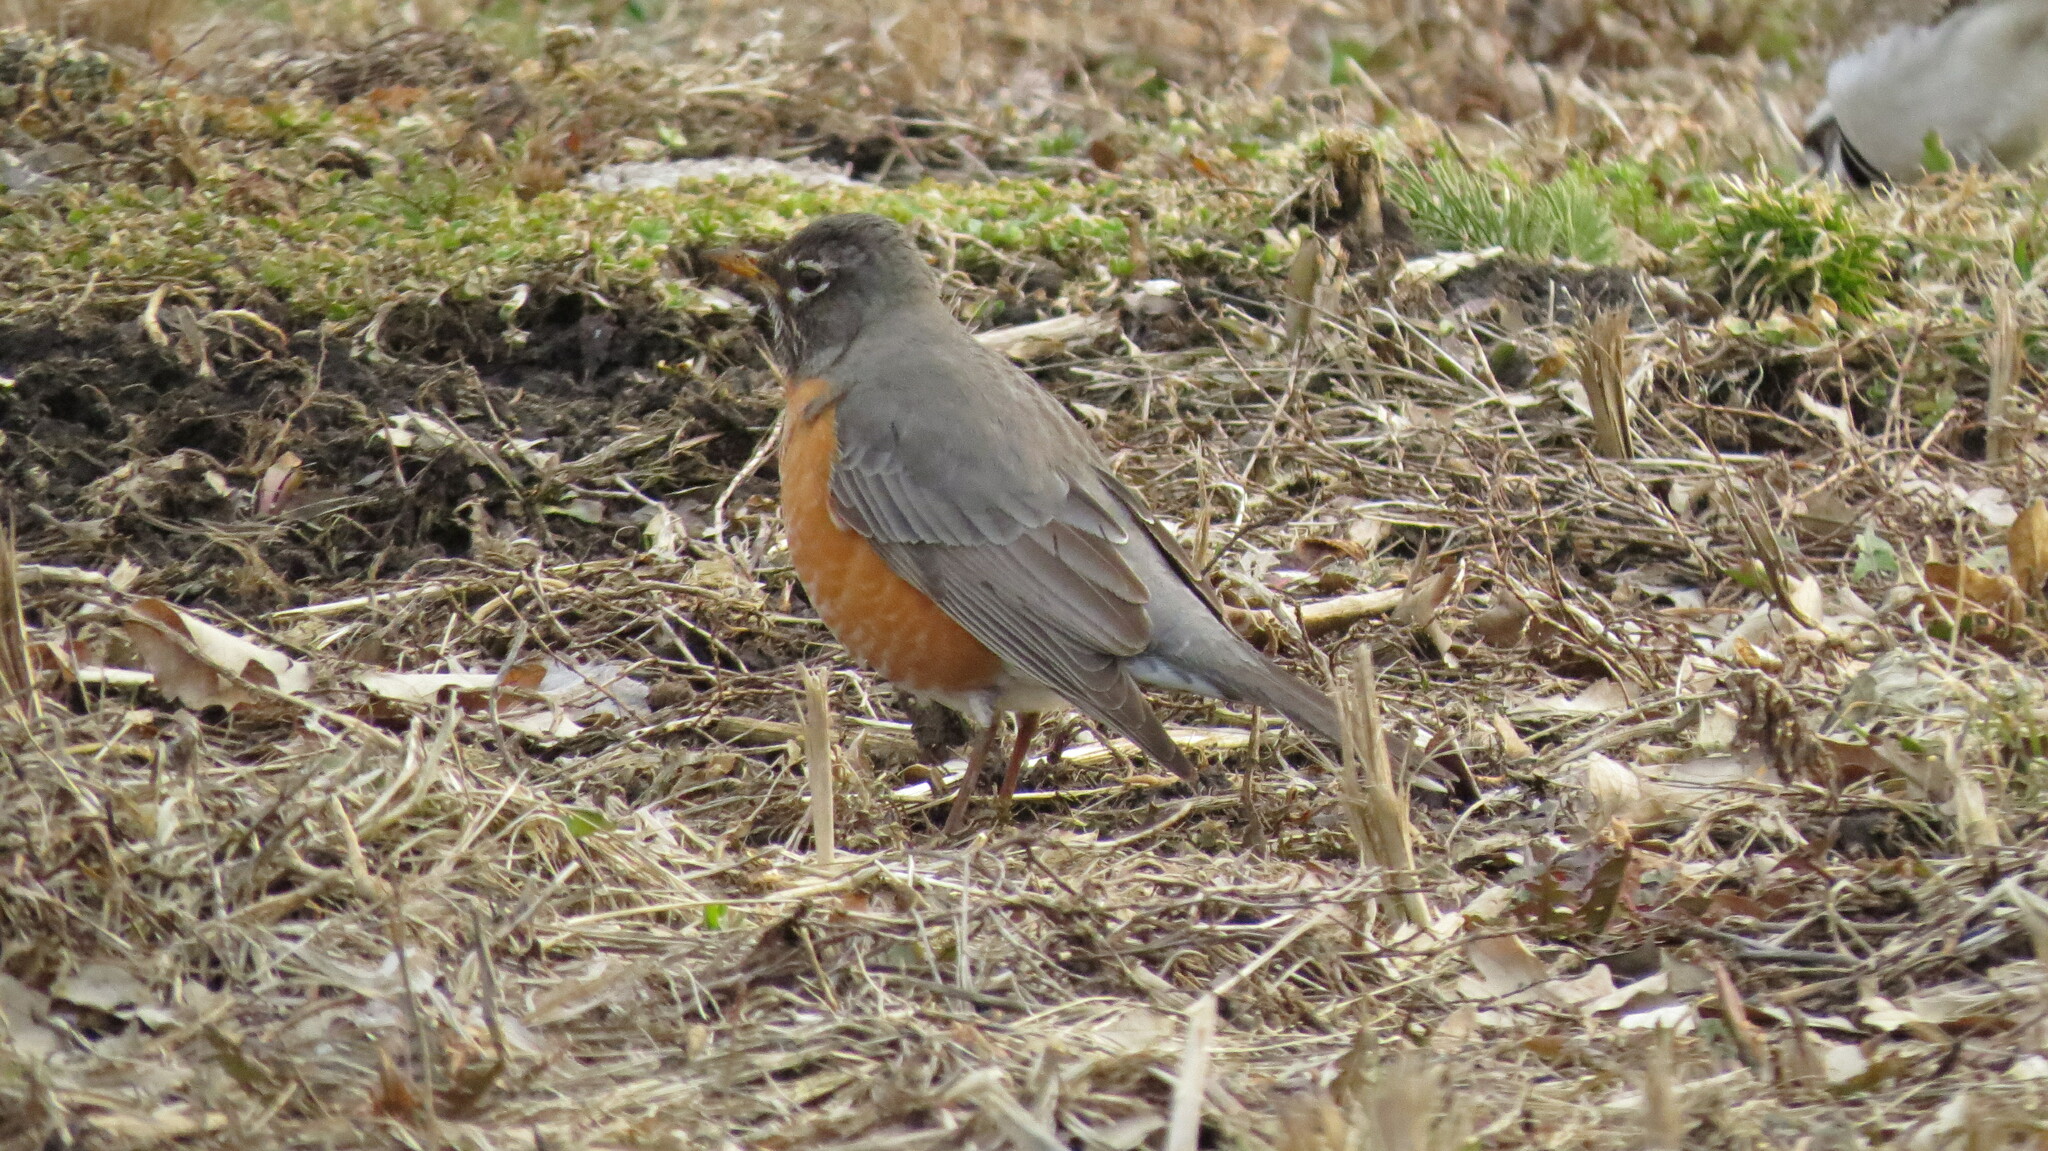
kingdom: Animalia
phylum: Chordata
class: Aves
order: Passeriformes
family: Turdidae
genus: Turdus
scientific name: Turdus migratorius
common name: American robin
